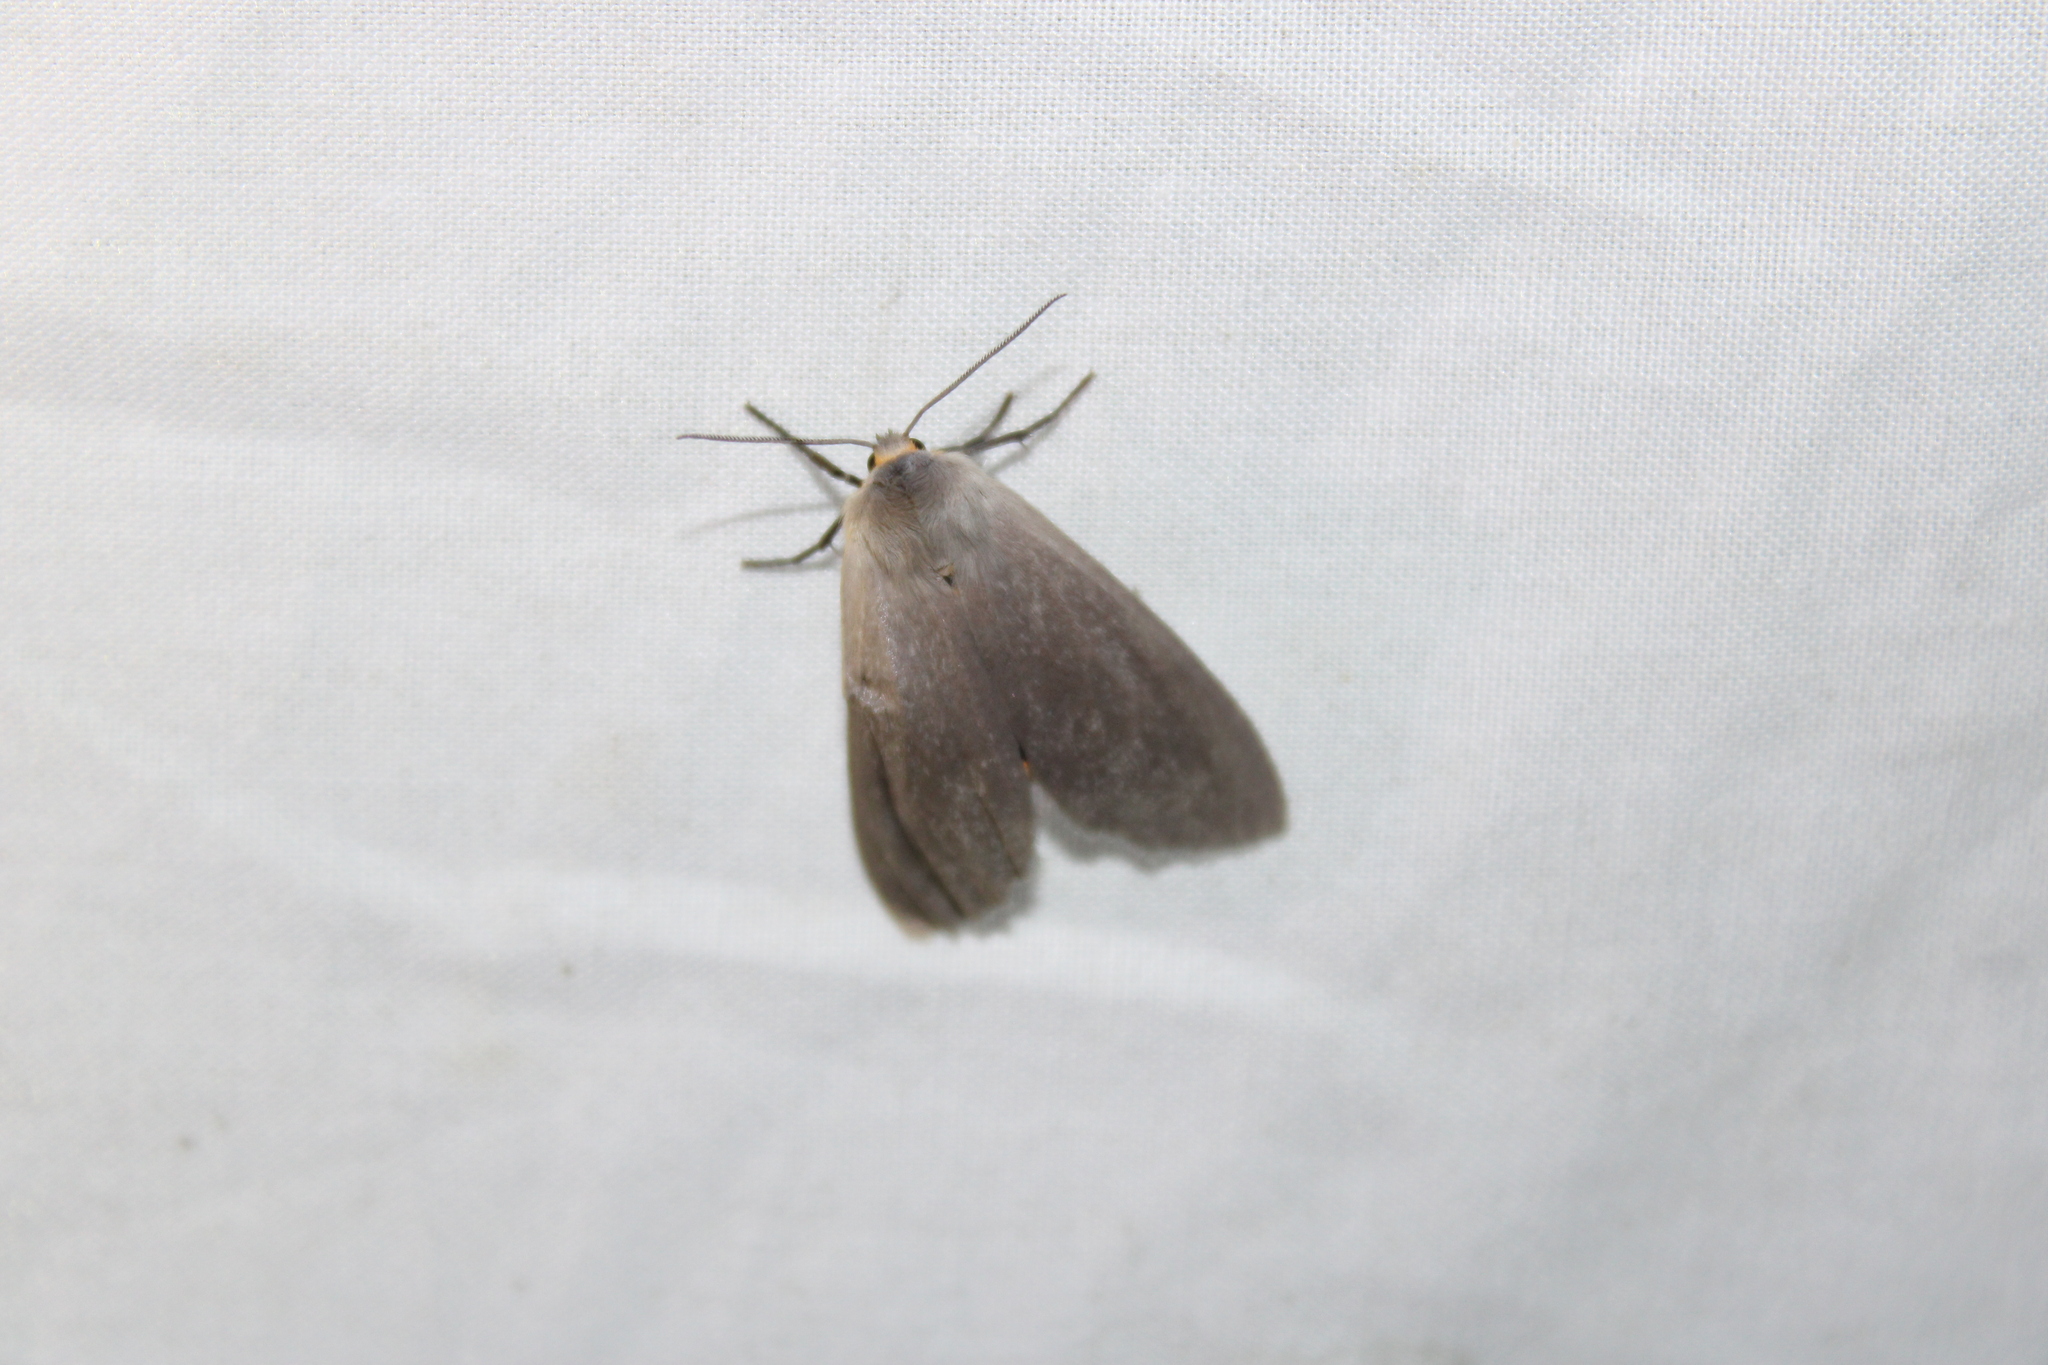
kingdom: Animalia
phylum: Arthropoda
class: Insecta
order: Lepidoptera
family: Erebidae
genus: Euchaetes
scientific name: Euchaetes egle
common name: Milkweed tussock moth
